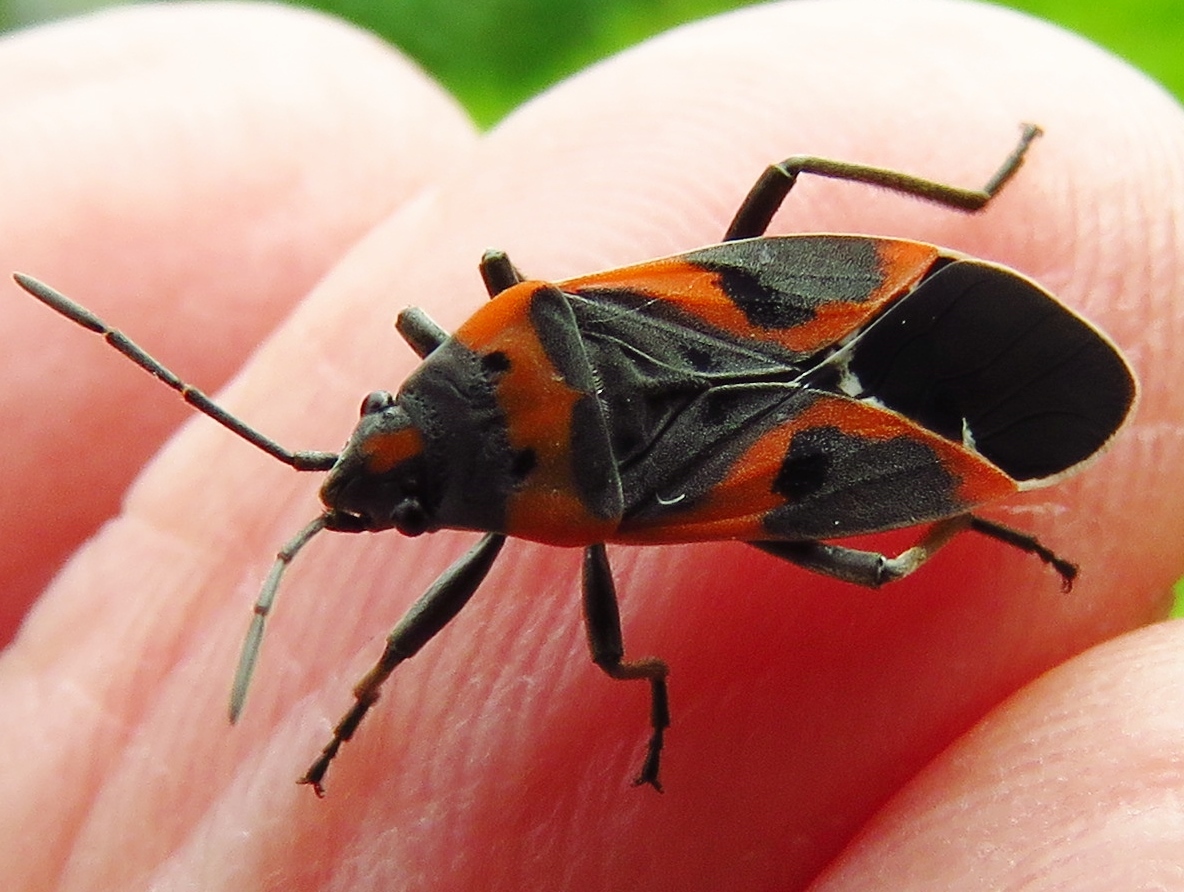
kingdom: Animalia
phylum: Arthropoda
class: Insecta
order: Hemiptera
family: Lygaeidae
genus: Lygaeus
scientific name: Lygaeus kalmii
